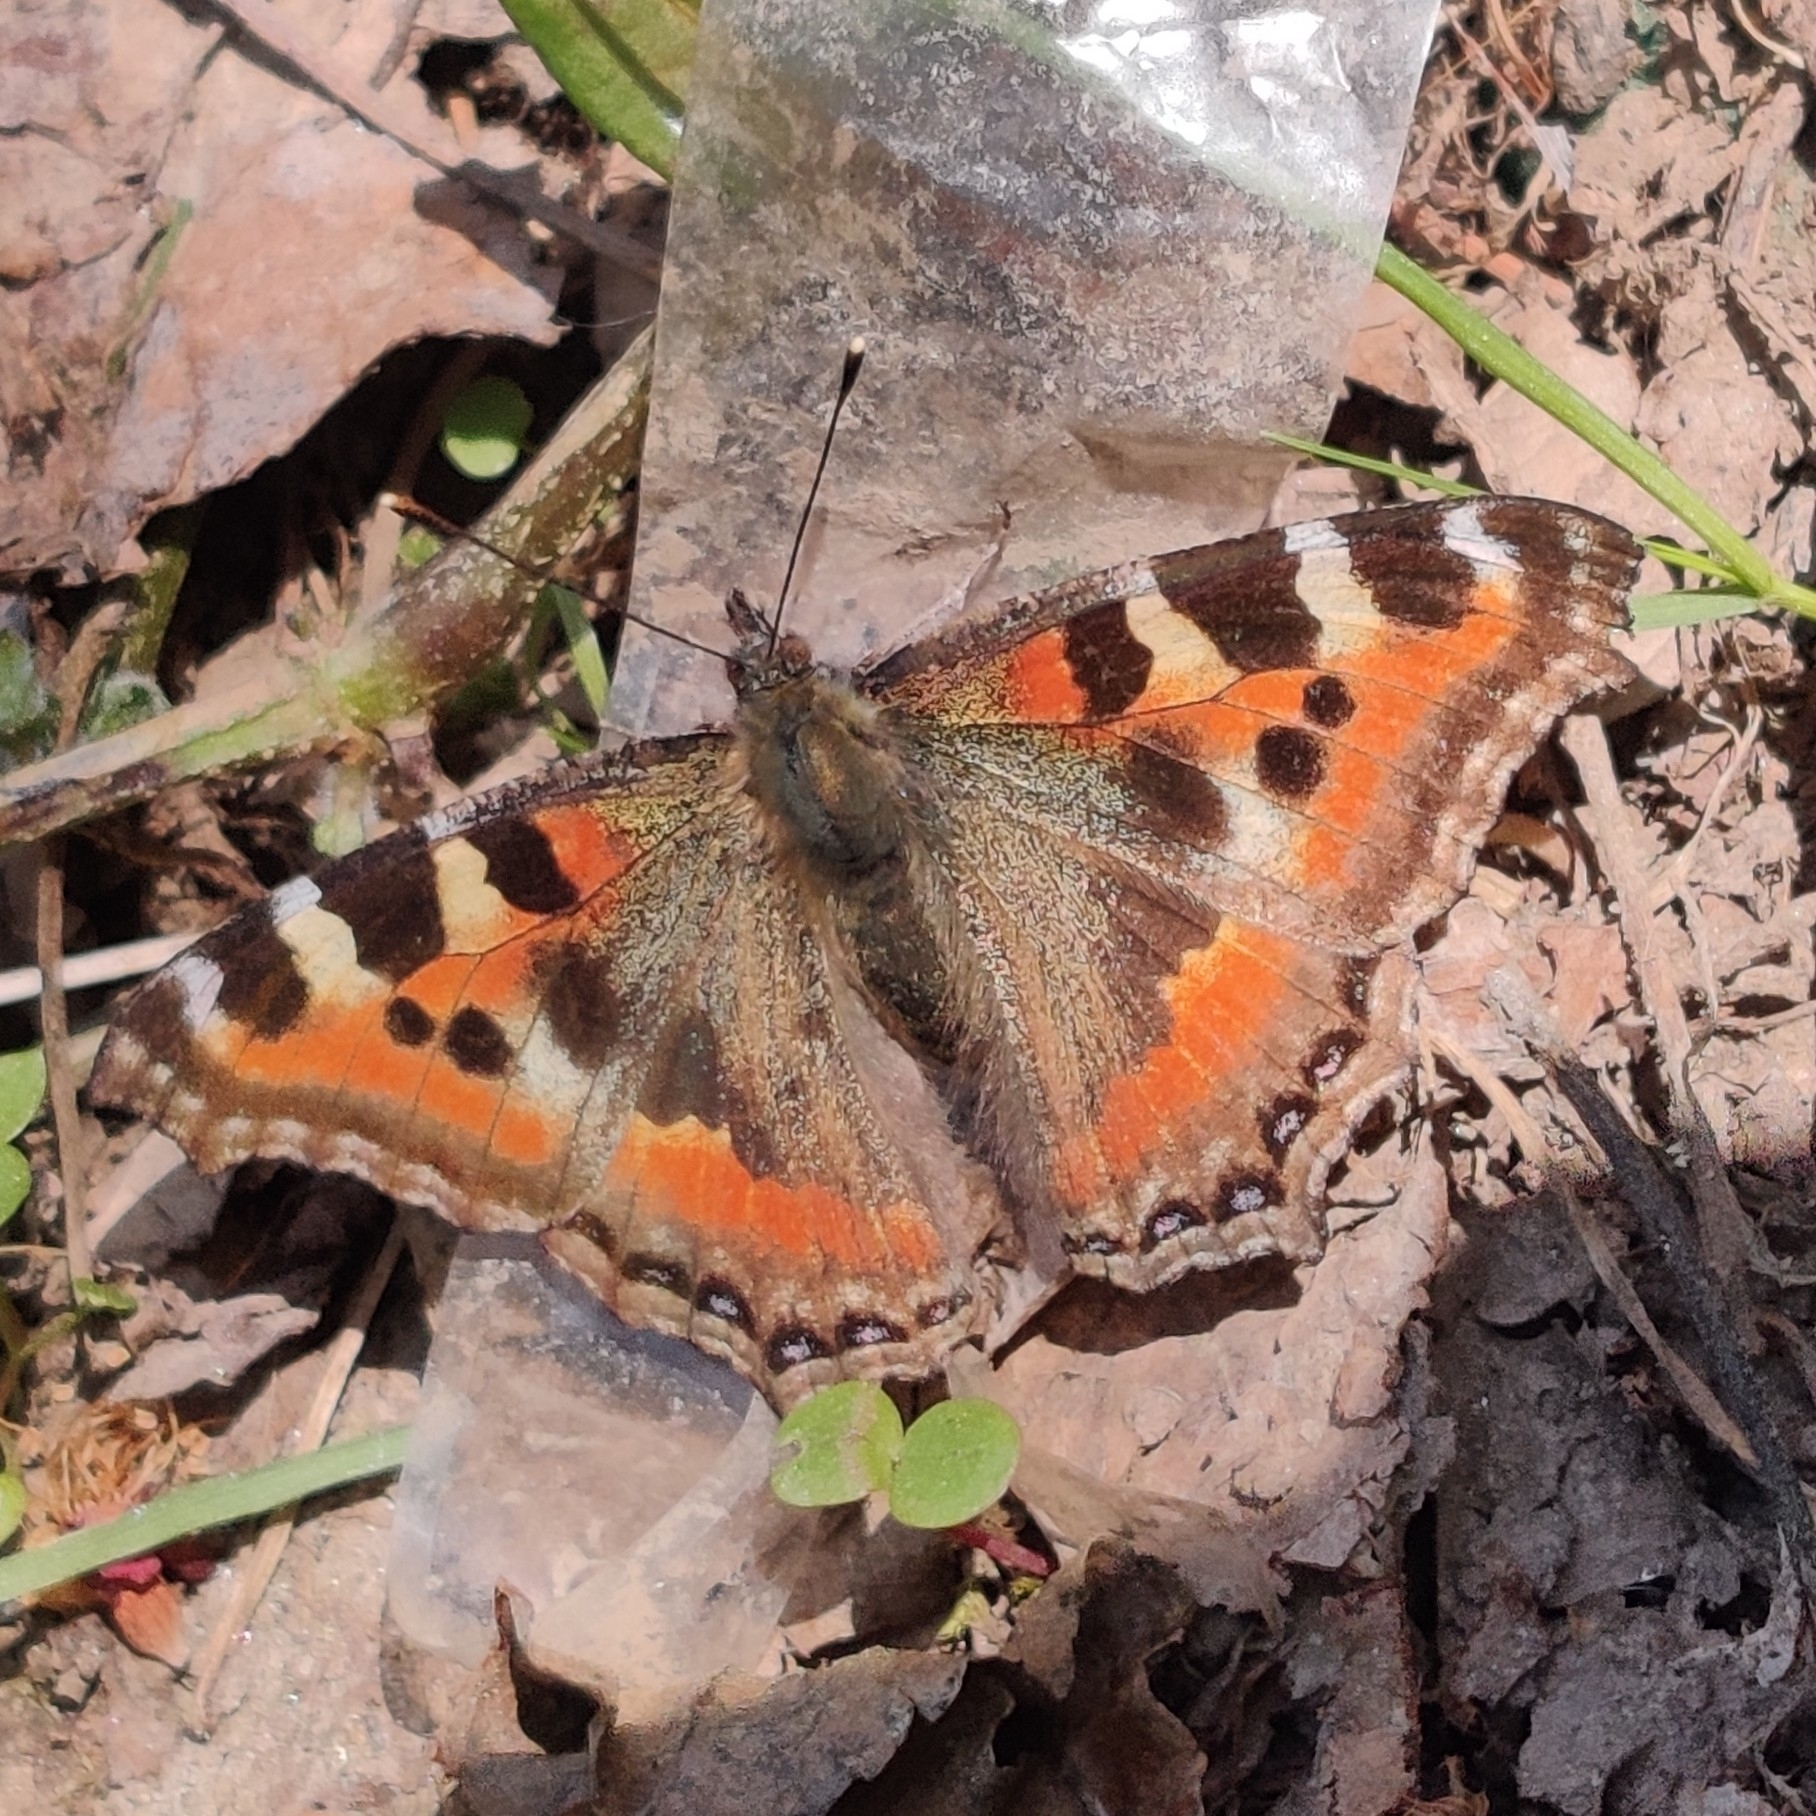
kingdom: Animalia
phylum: Arthropoda
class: Insecta
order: Lepidoptera
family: Nymphalidae
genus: Aglais
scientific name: Aglais caschmirensis
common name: Indian tortoiseshell
